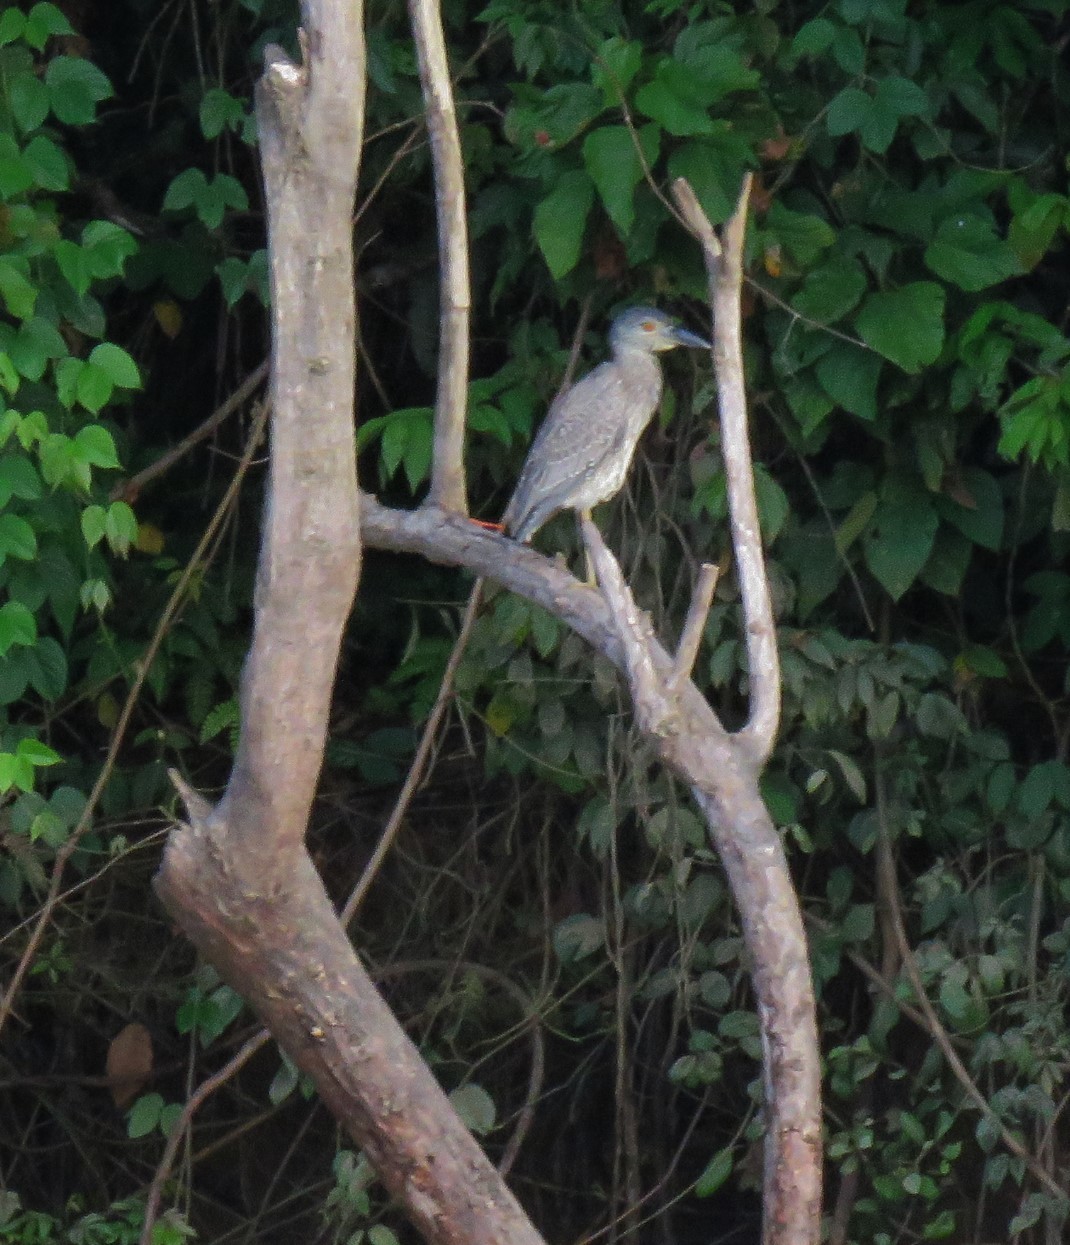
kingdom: Animalia
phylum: Chordata
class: Aves
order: Pelecaniformes
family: Ardeidae
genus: Nyctanassa
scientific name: Nyctanassa violacea
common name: Yellow-crowned night heron
